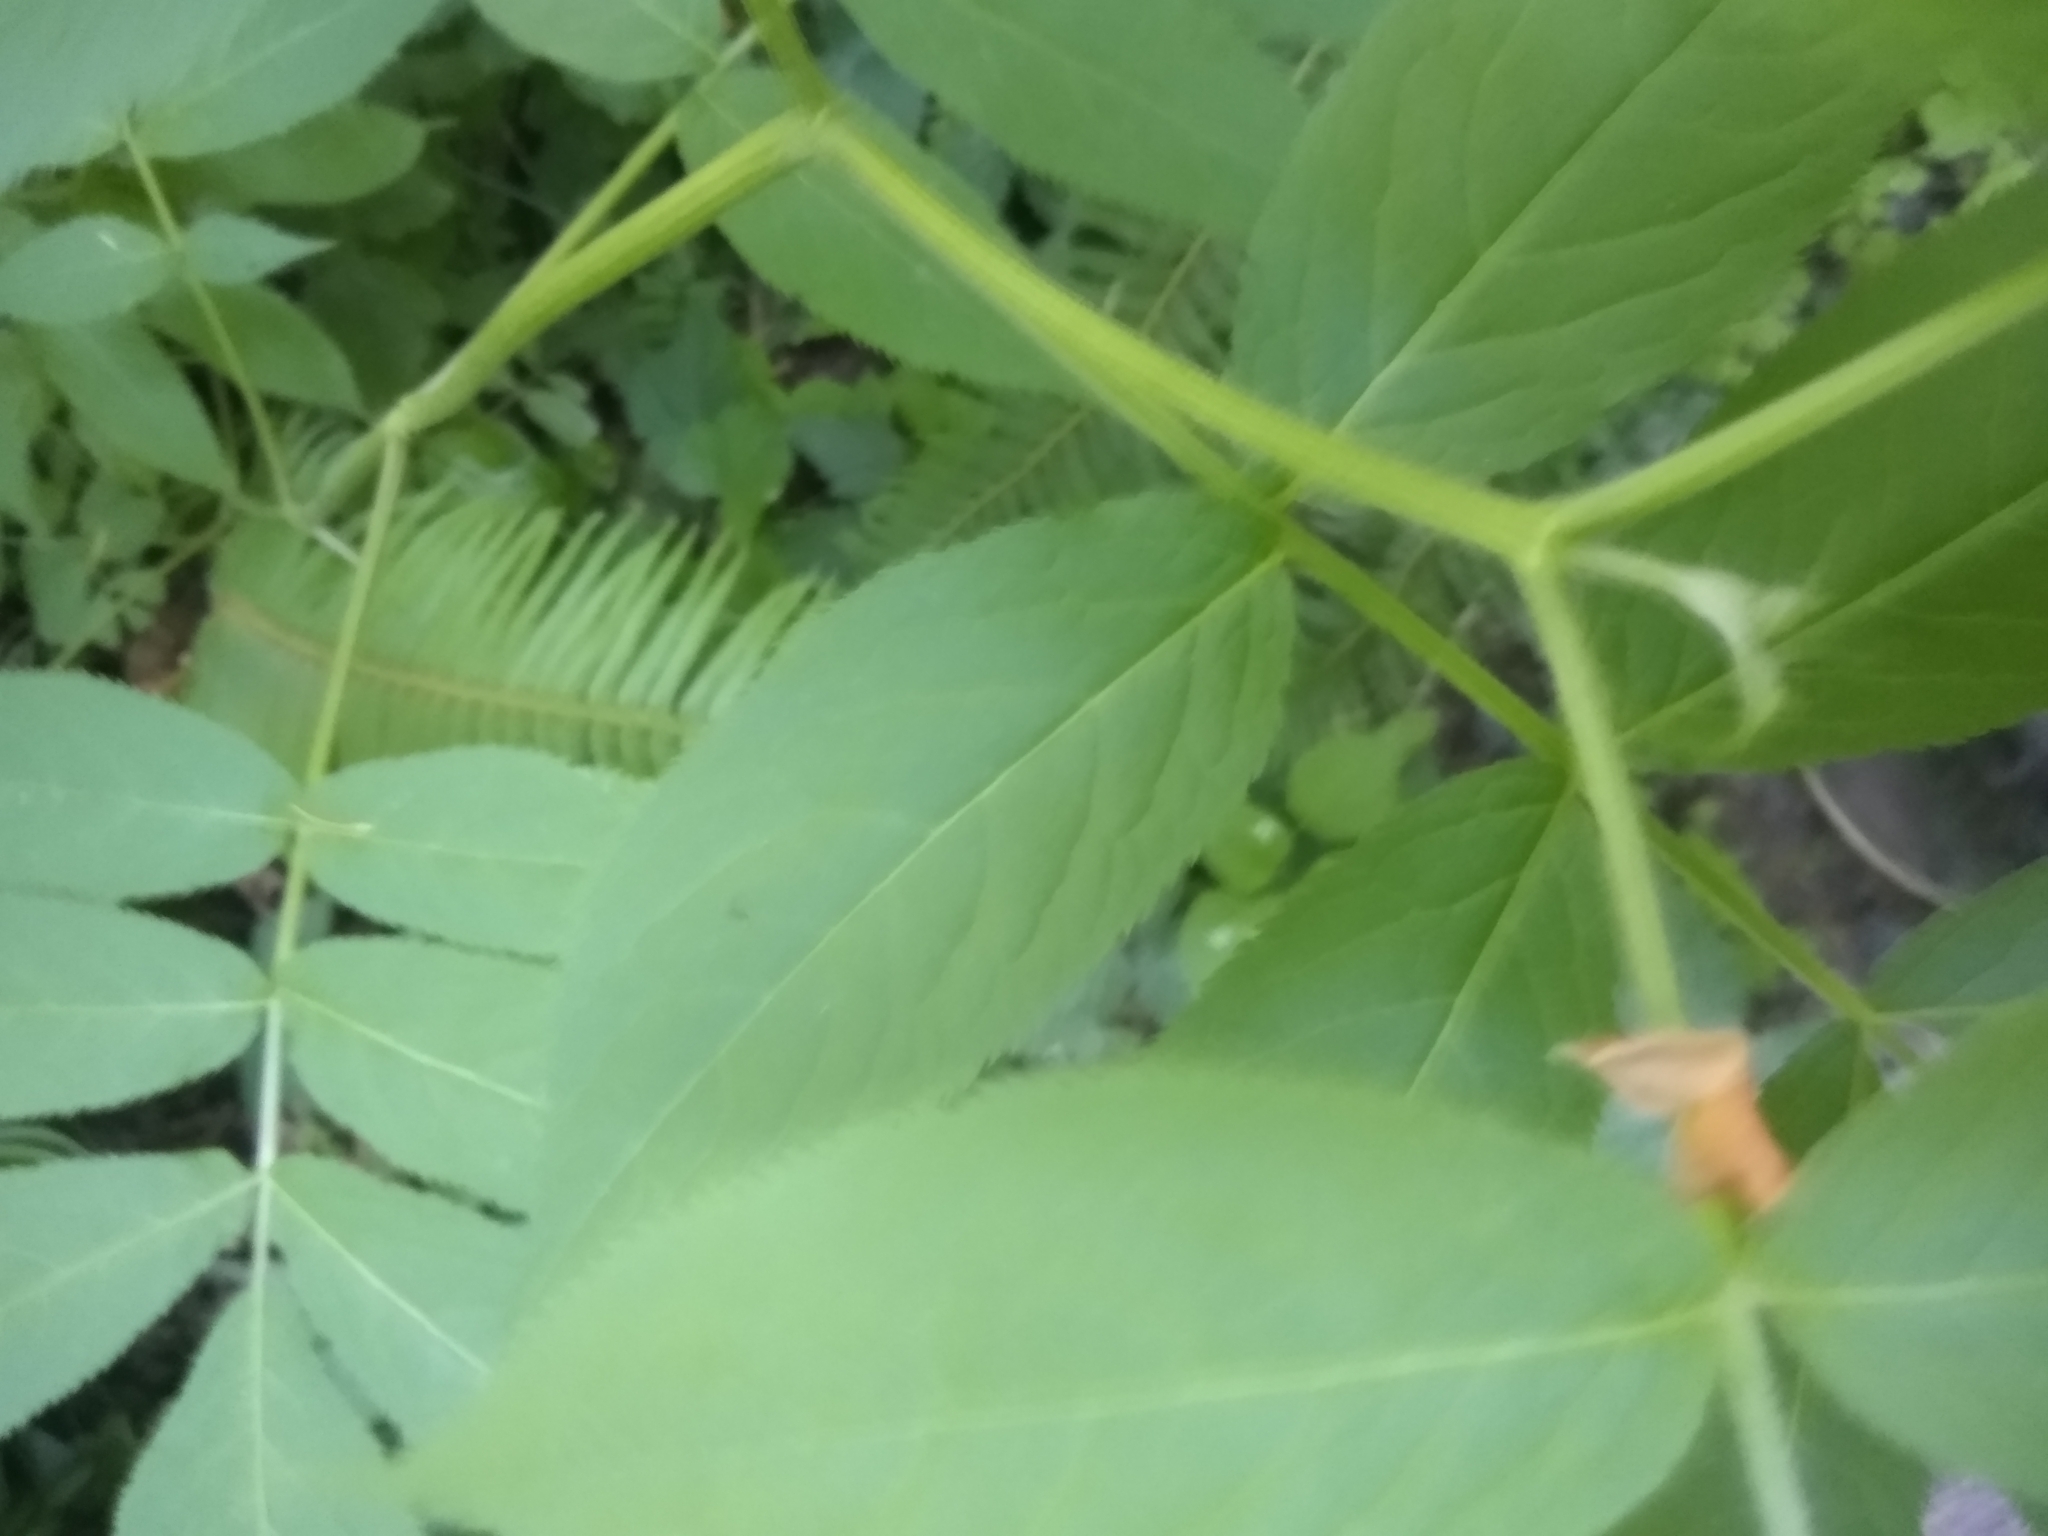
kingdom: Plantae
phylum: Tracheophyta
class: Magnoliopsida
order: Dipsacales
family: Viburnaceae
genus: Sambucus
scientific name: Sambucus racemosa
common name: Red-berried elder
